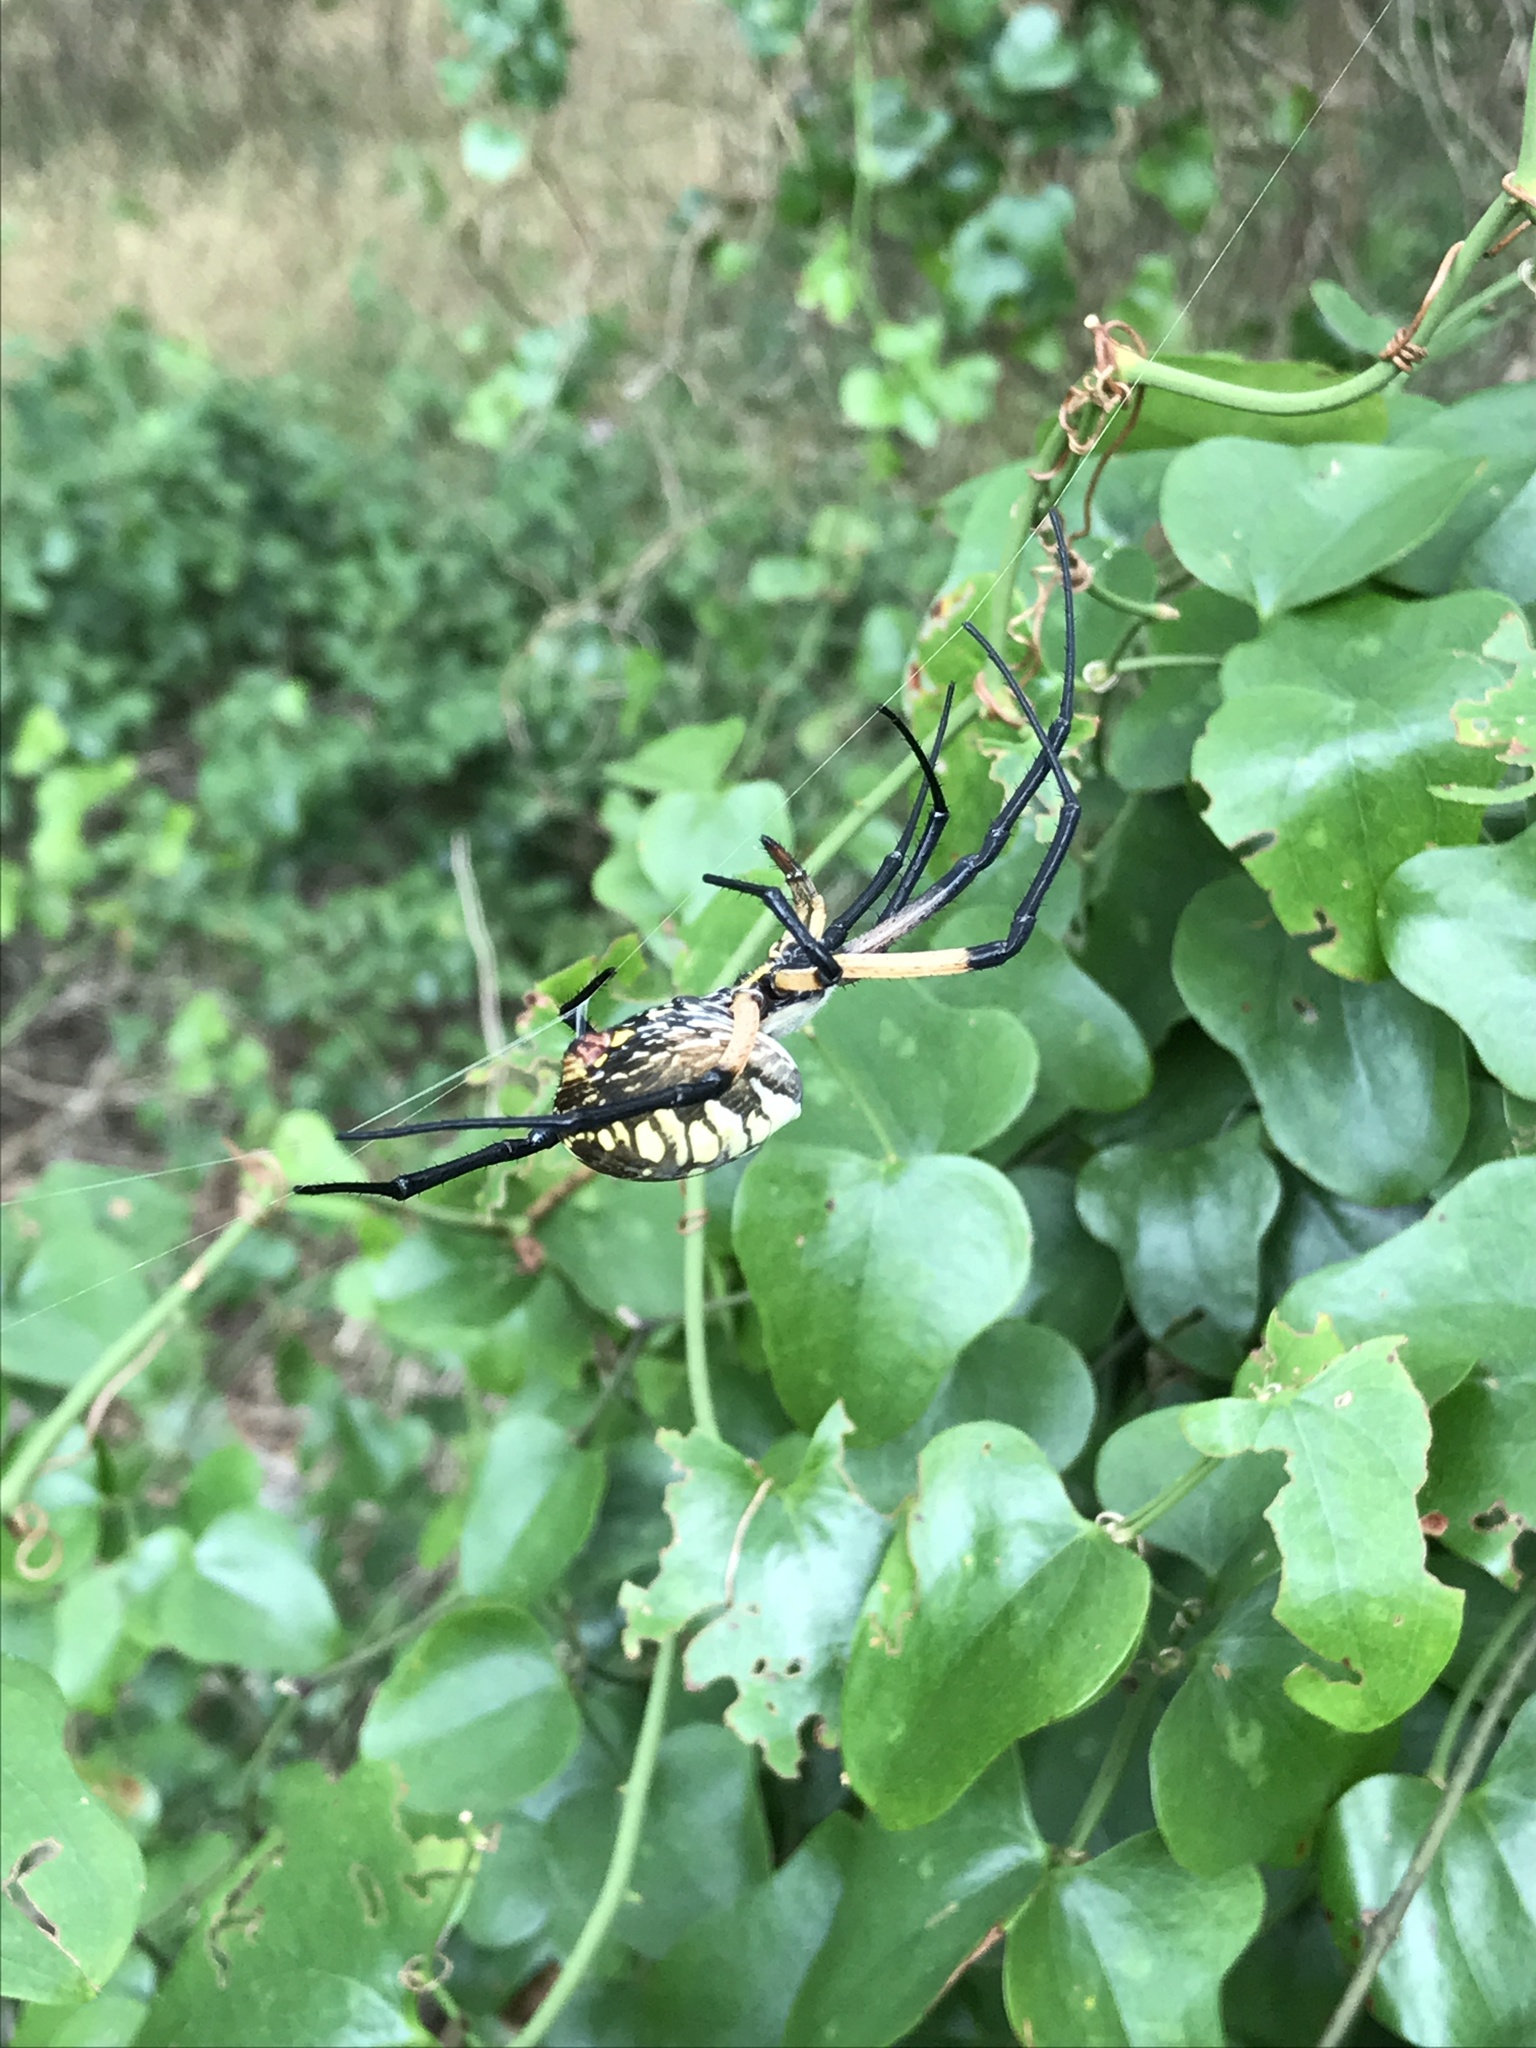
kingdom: Animalia
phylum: Arthropoda
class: Arachnida
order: Araneae
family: Araneidae
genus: Argiope
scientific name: Argiope aurantia
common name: Orb weavers
